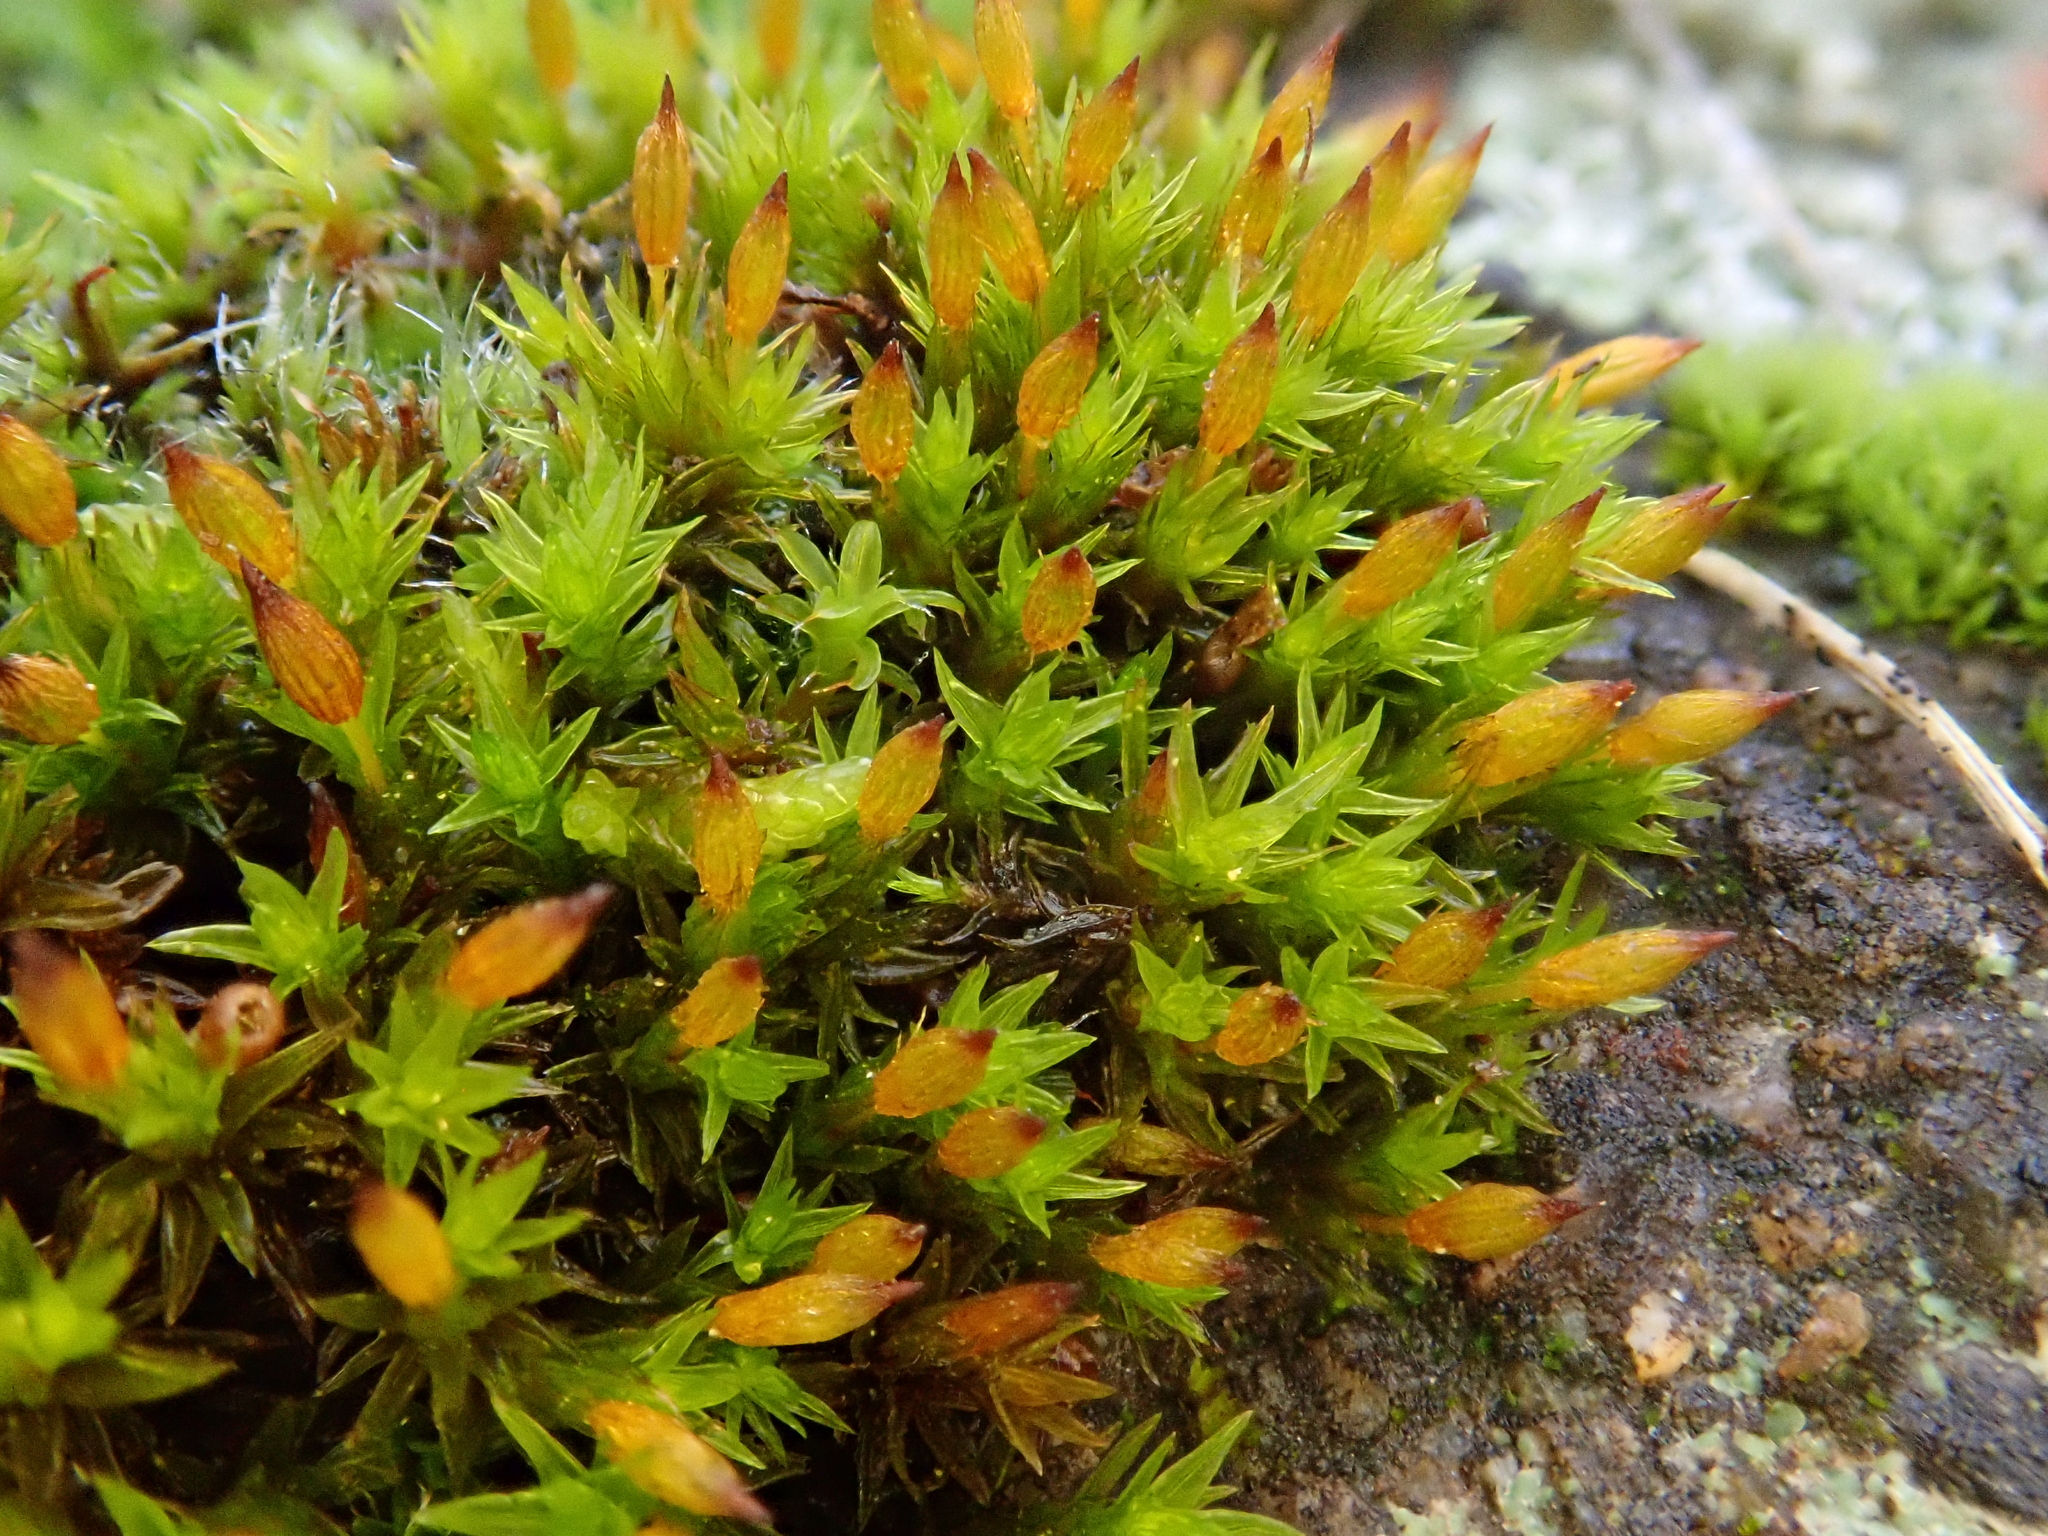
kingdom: Plantae
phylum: Bryophyta
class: Bryopsida
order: Orthotrichales
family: Orthotrichaceae
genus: Orthotrichum
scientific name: Orthotrichum anomalum
